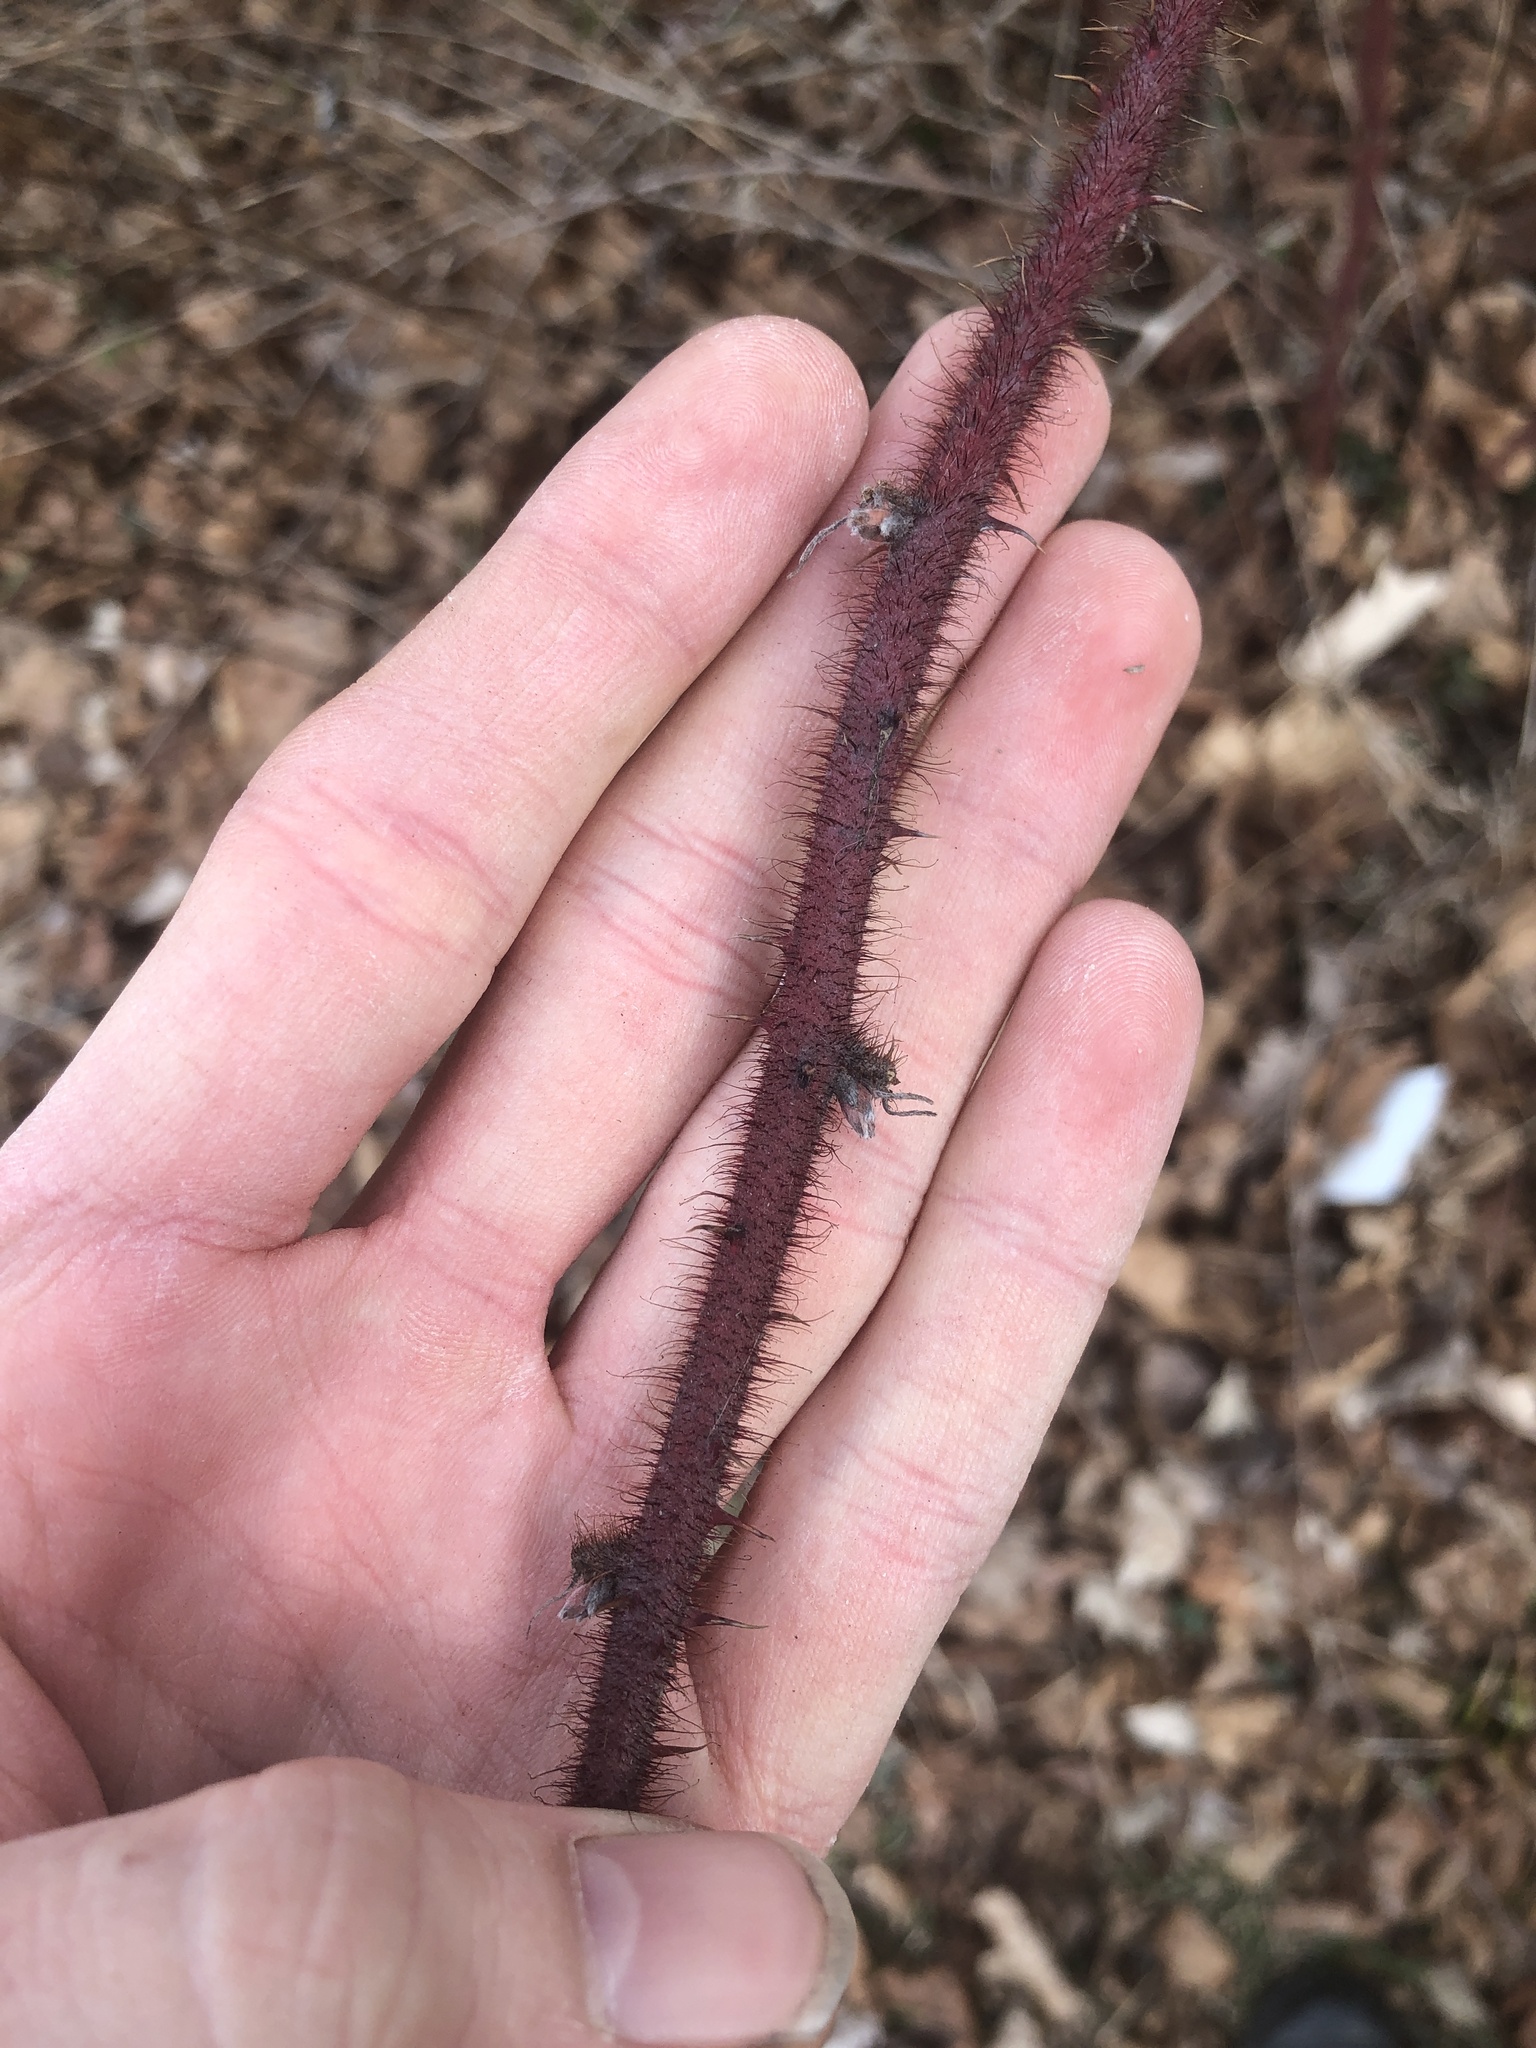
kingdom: Plantae
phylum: Tracheophyta
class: Magnoliopsida
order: Rosales
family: Rosaceae
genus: Rubus
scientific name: Rubus phoenicolasius
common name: Japanese wineberry
